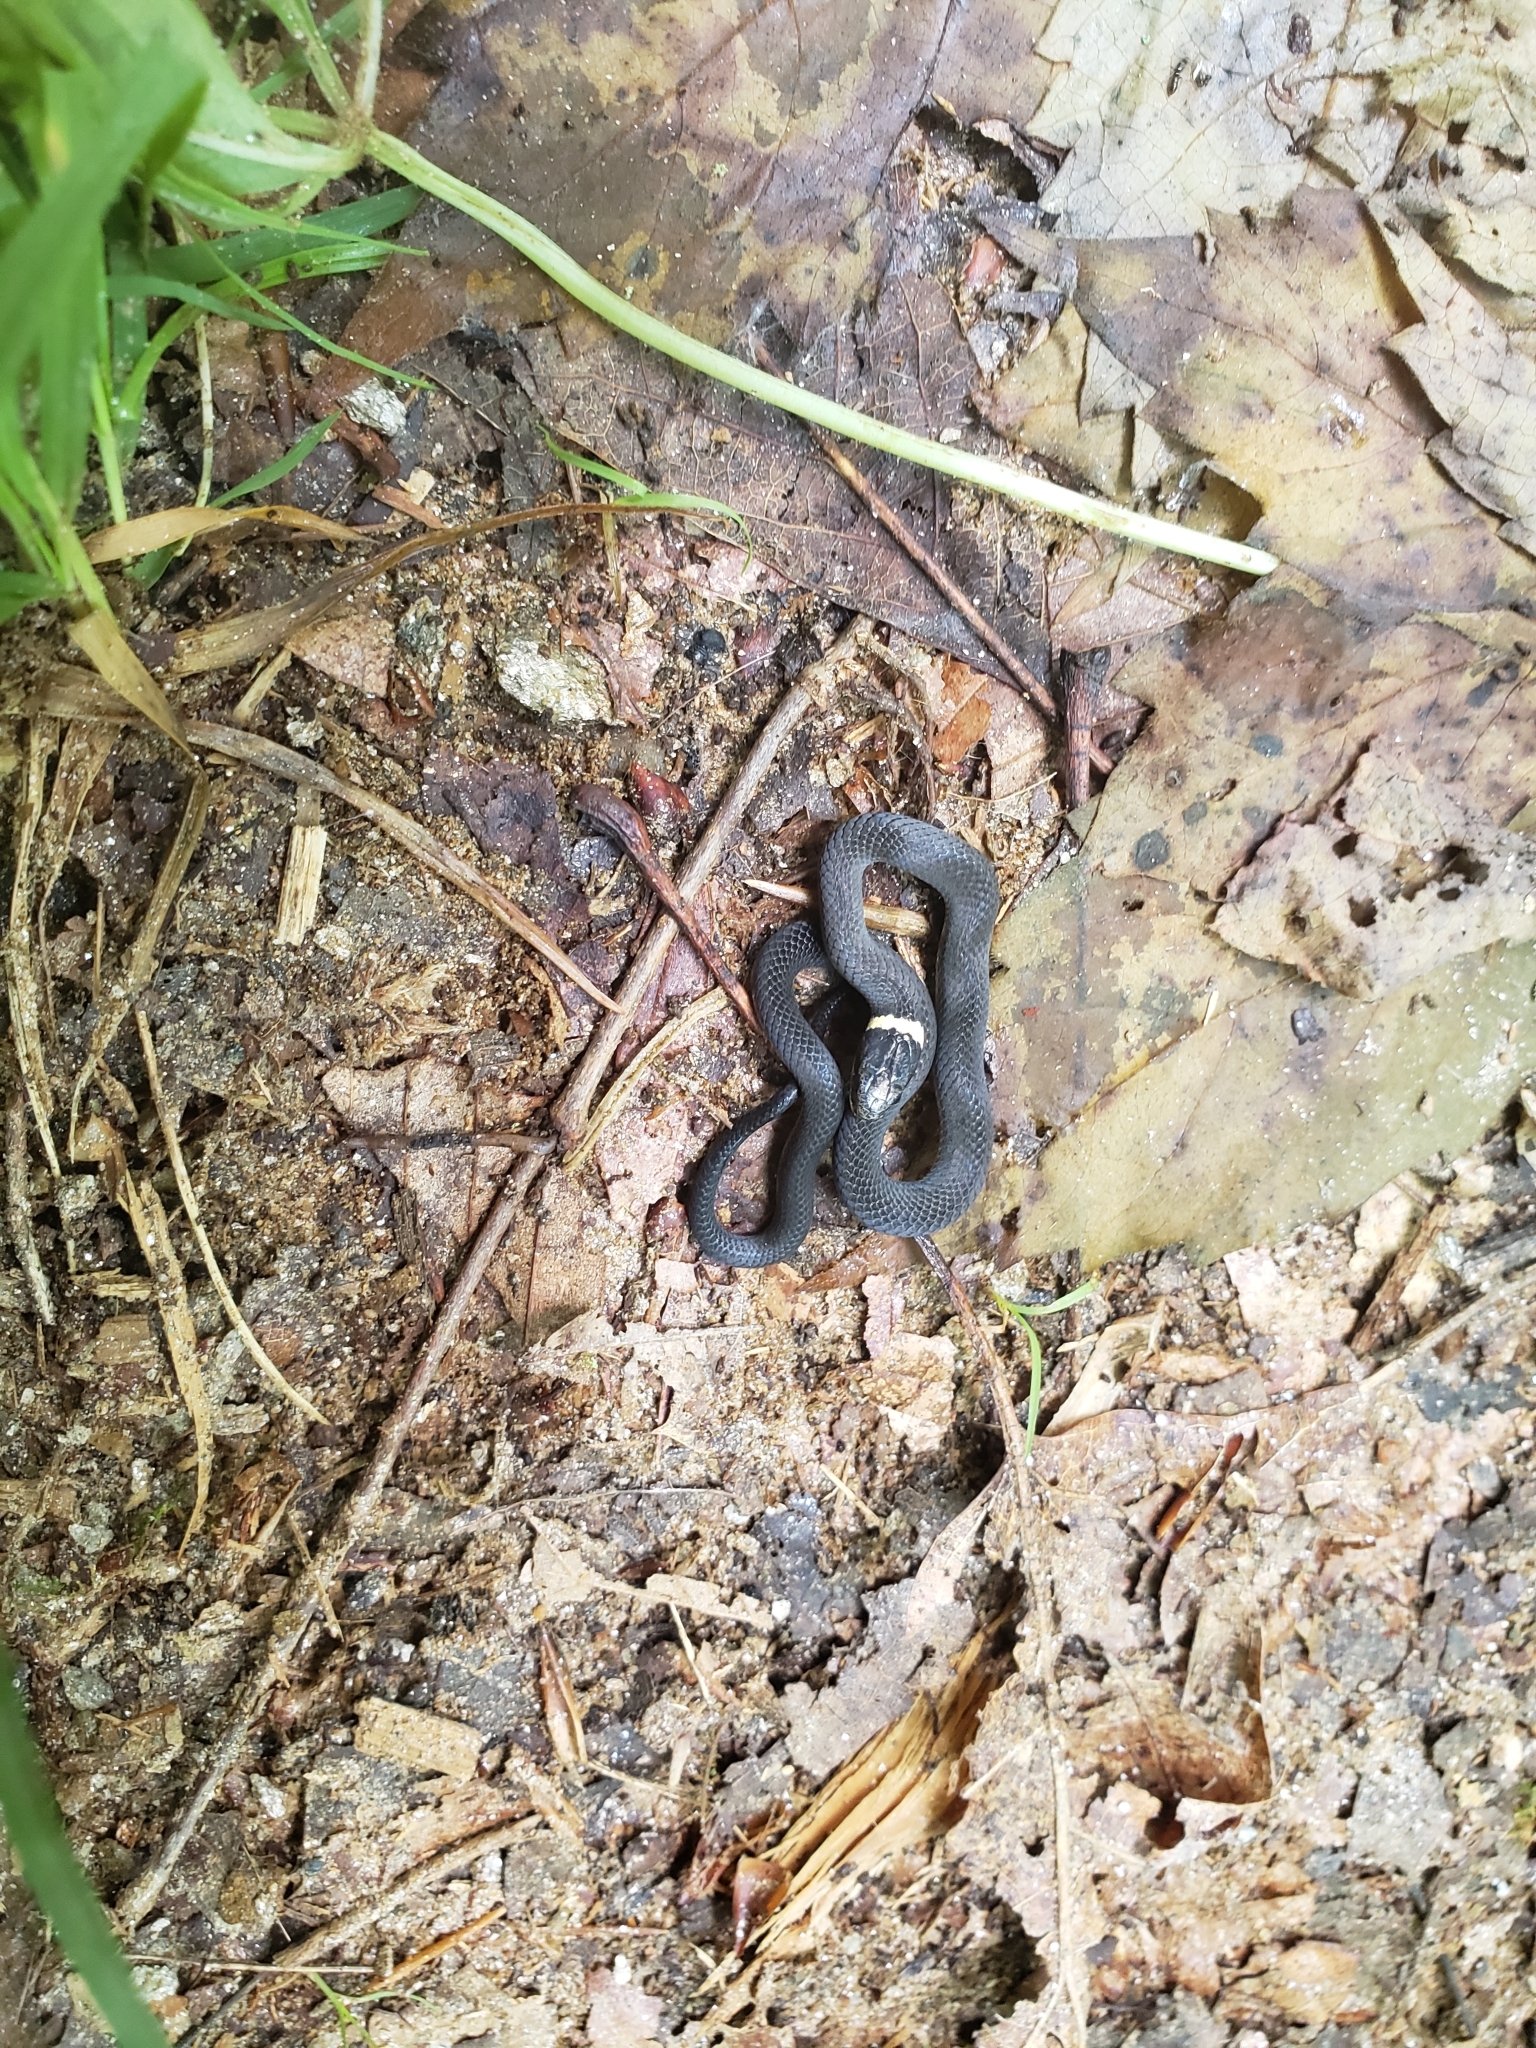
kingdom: Animalia
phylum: Chordata
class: Squamata
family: Colubridae
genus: Diadophis
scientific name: Diadophis punctatus
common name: Ringneck snake
